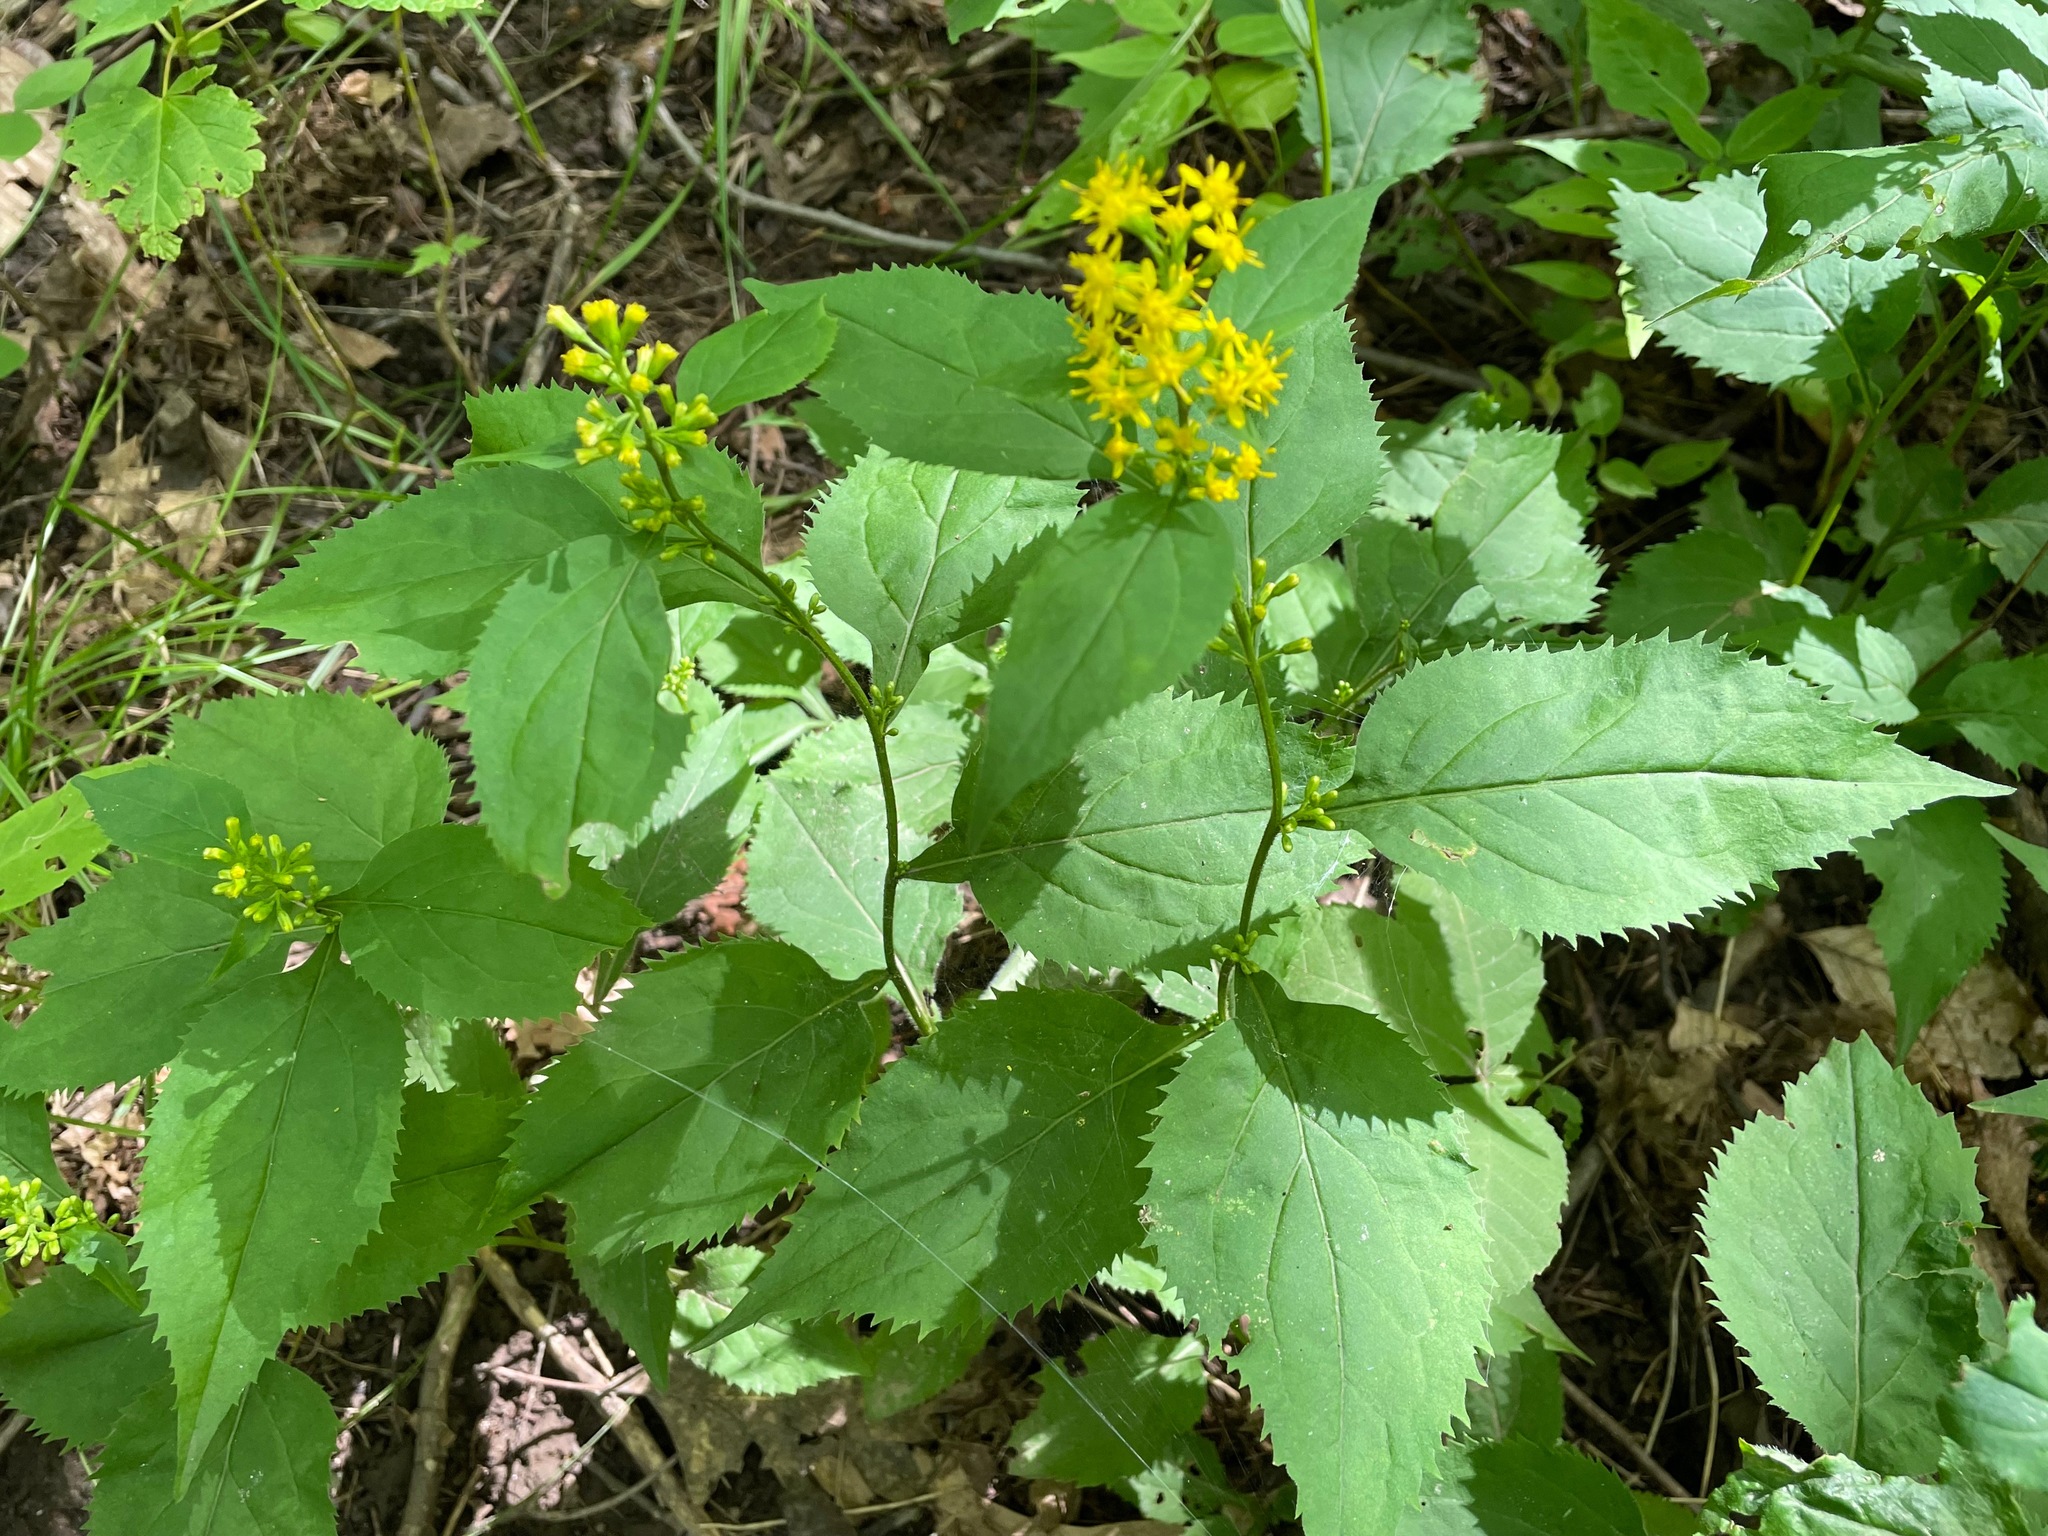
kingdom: Plantae
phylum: Tracheophyta
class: Magnoliopsida
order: Asterales
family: Asteraceae
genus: Solidago
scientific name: Solidago flexicaulis
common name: Zig-zag goldenrod
